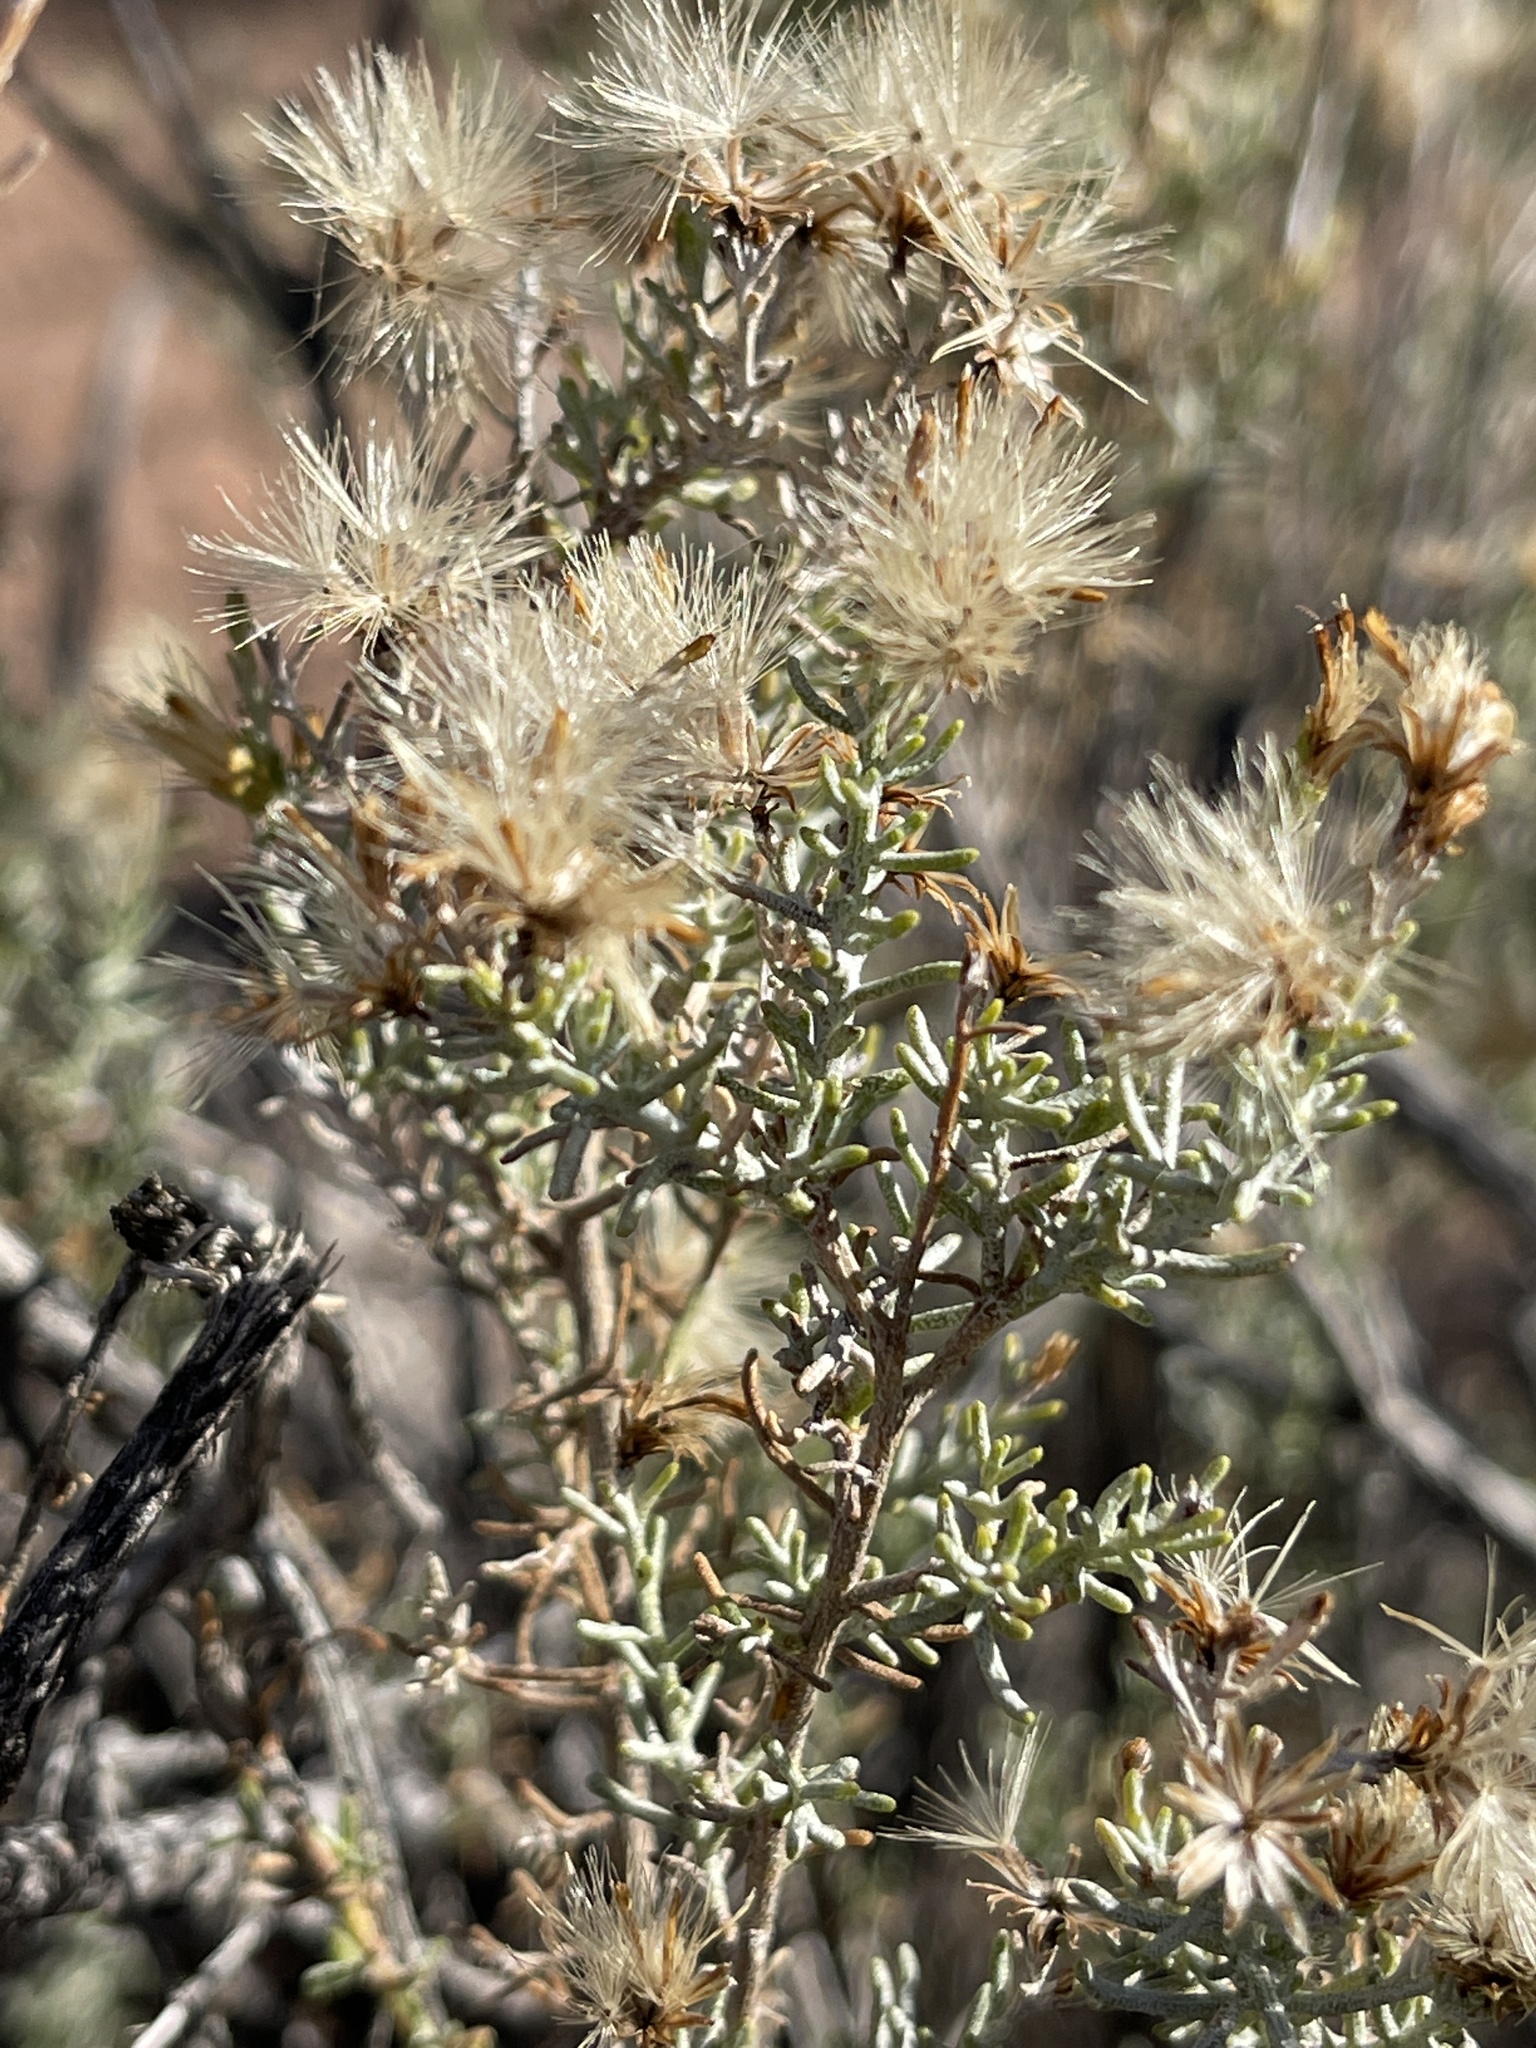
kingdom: Plantae
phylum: Tracheophyta
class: Magnoliopsida
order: Asterales
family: Asteraceae
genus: Ericameria
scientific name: Ericameria laricifolia
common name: Turpentine-bush
